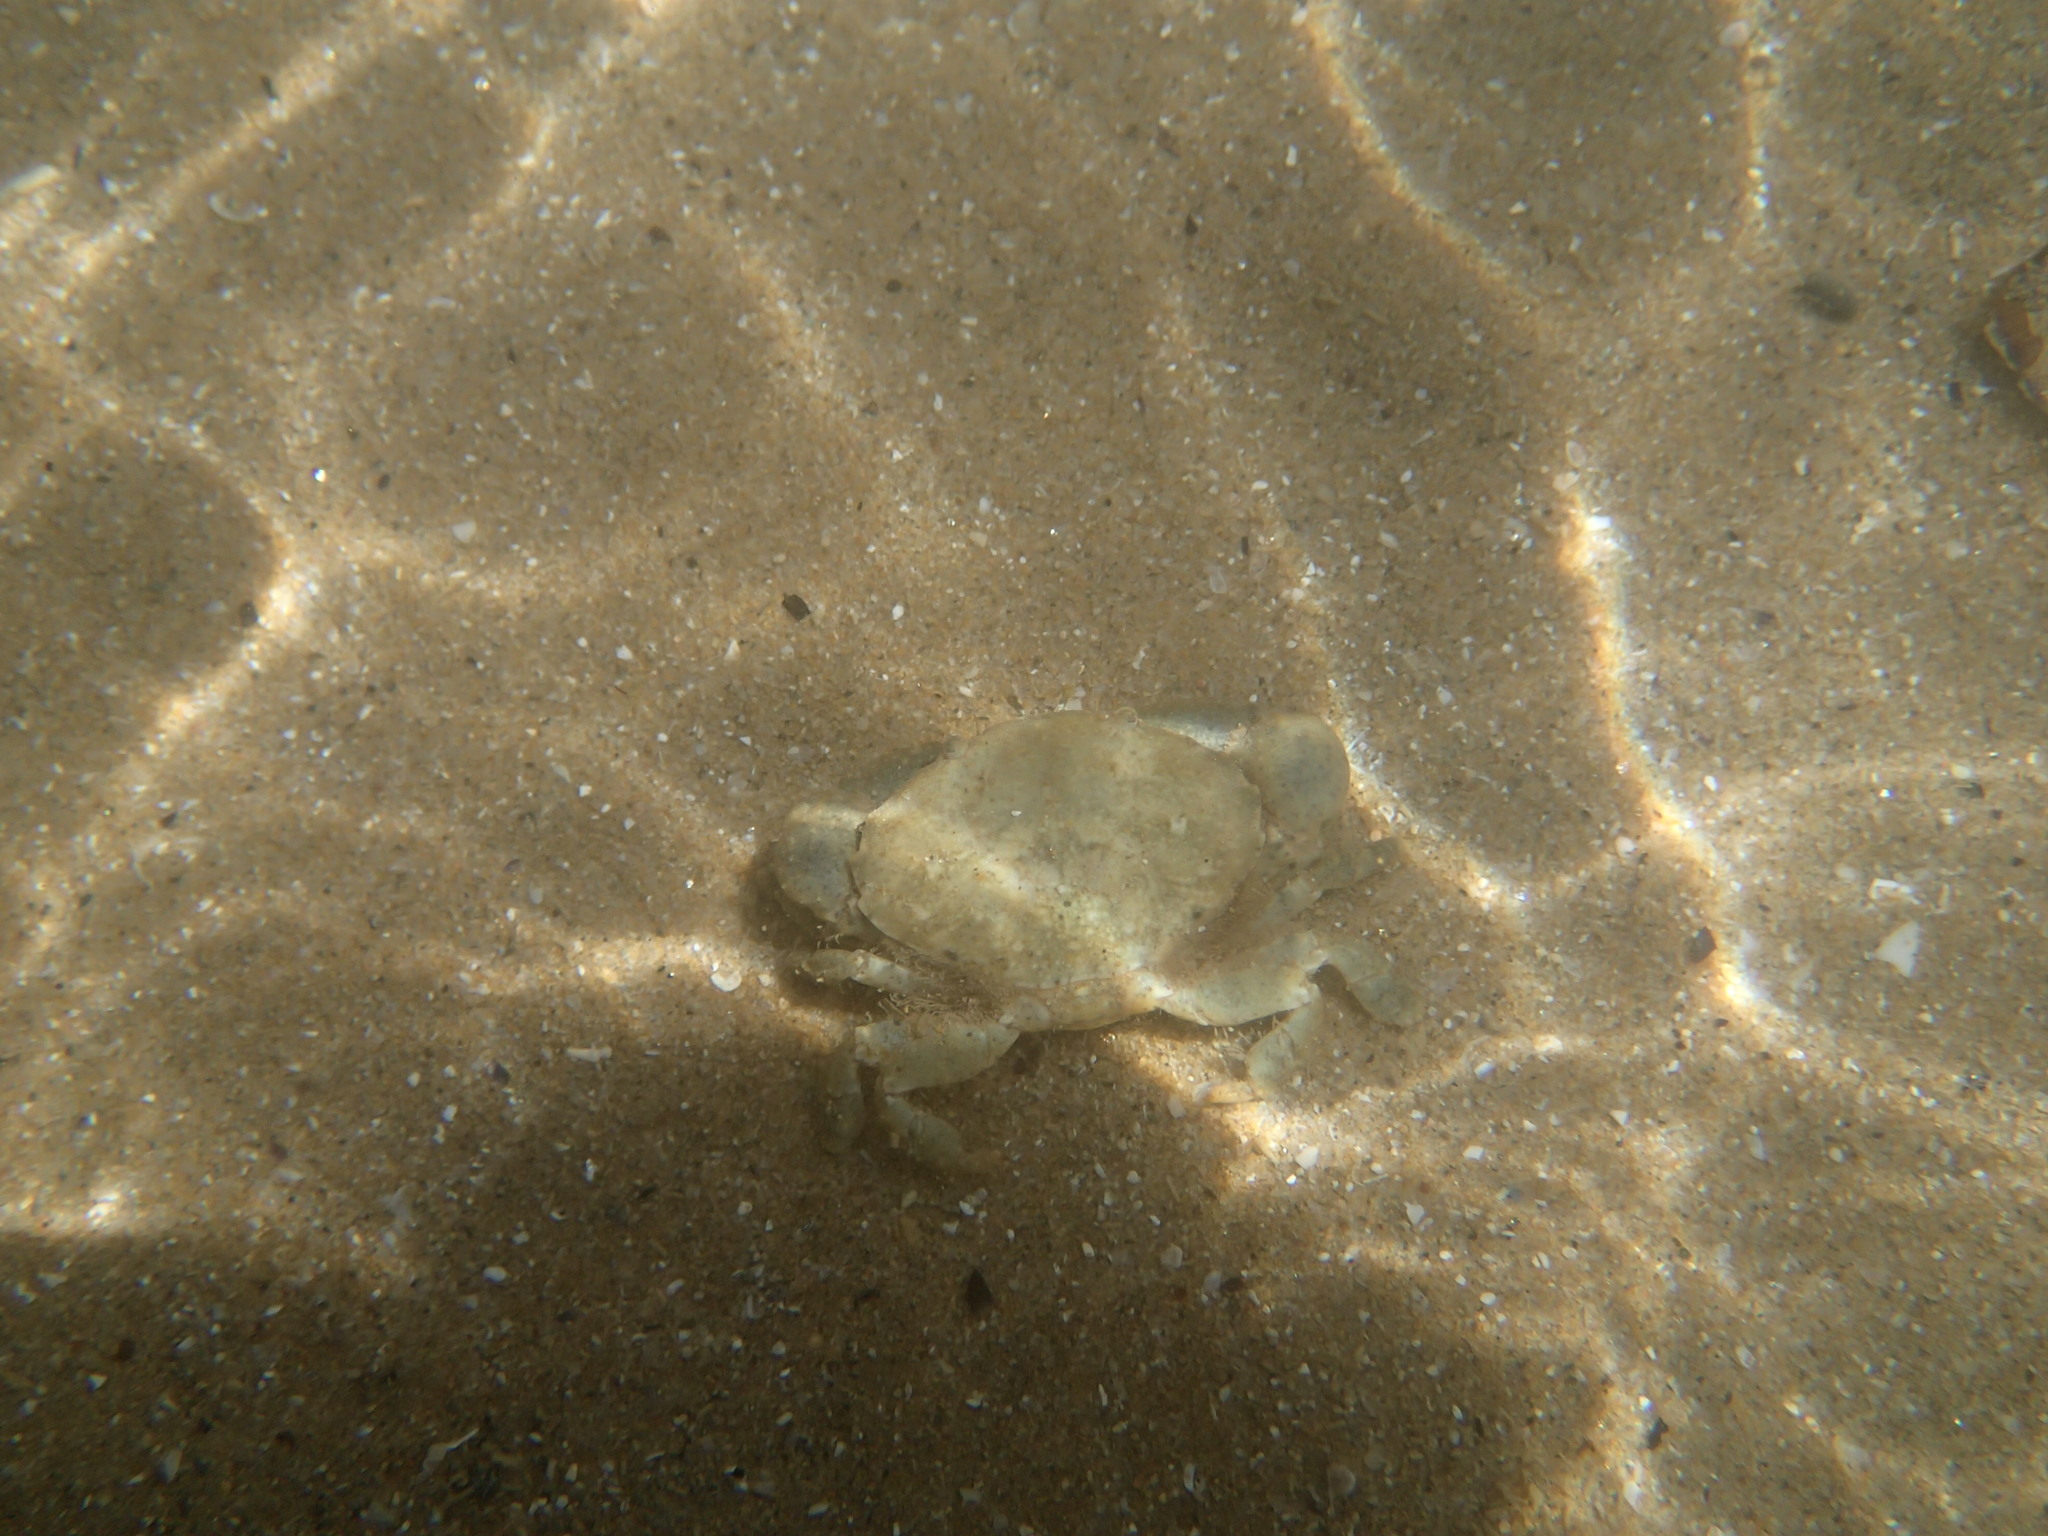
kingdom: Animalia
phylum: Arthropoda
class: Malacostraca
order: Decapoda
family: Xanthidae
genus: Xantho
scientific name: Xantho poressa
